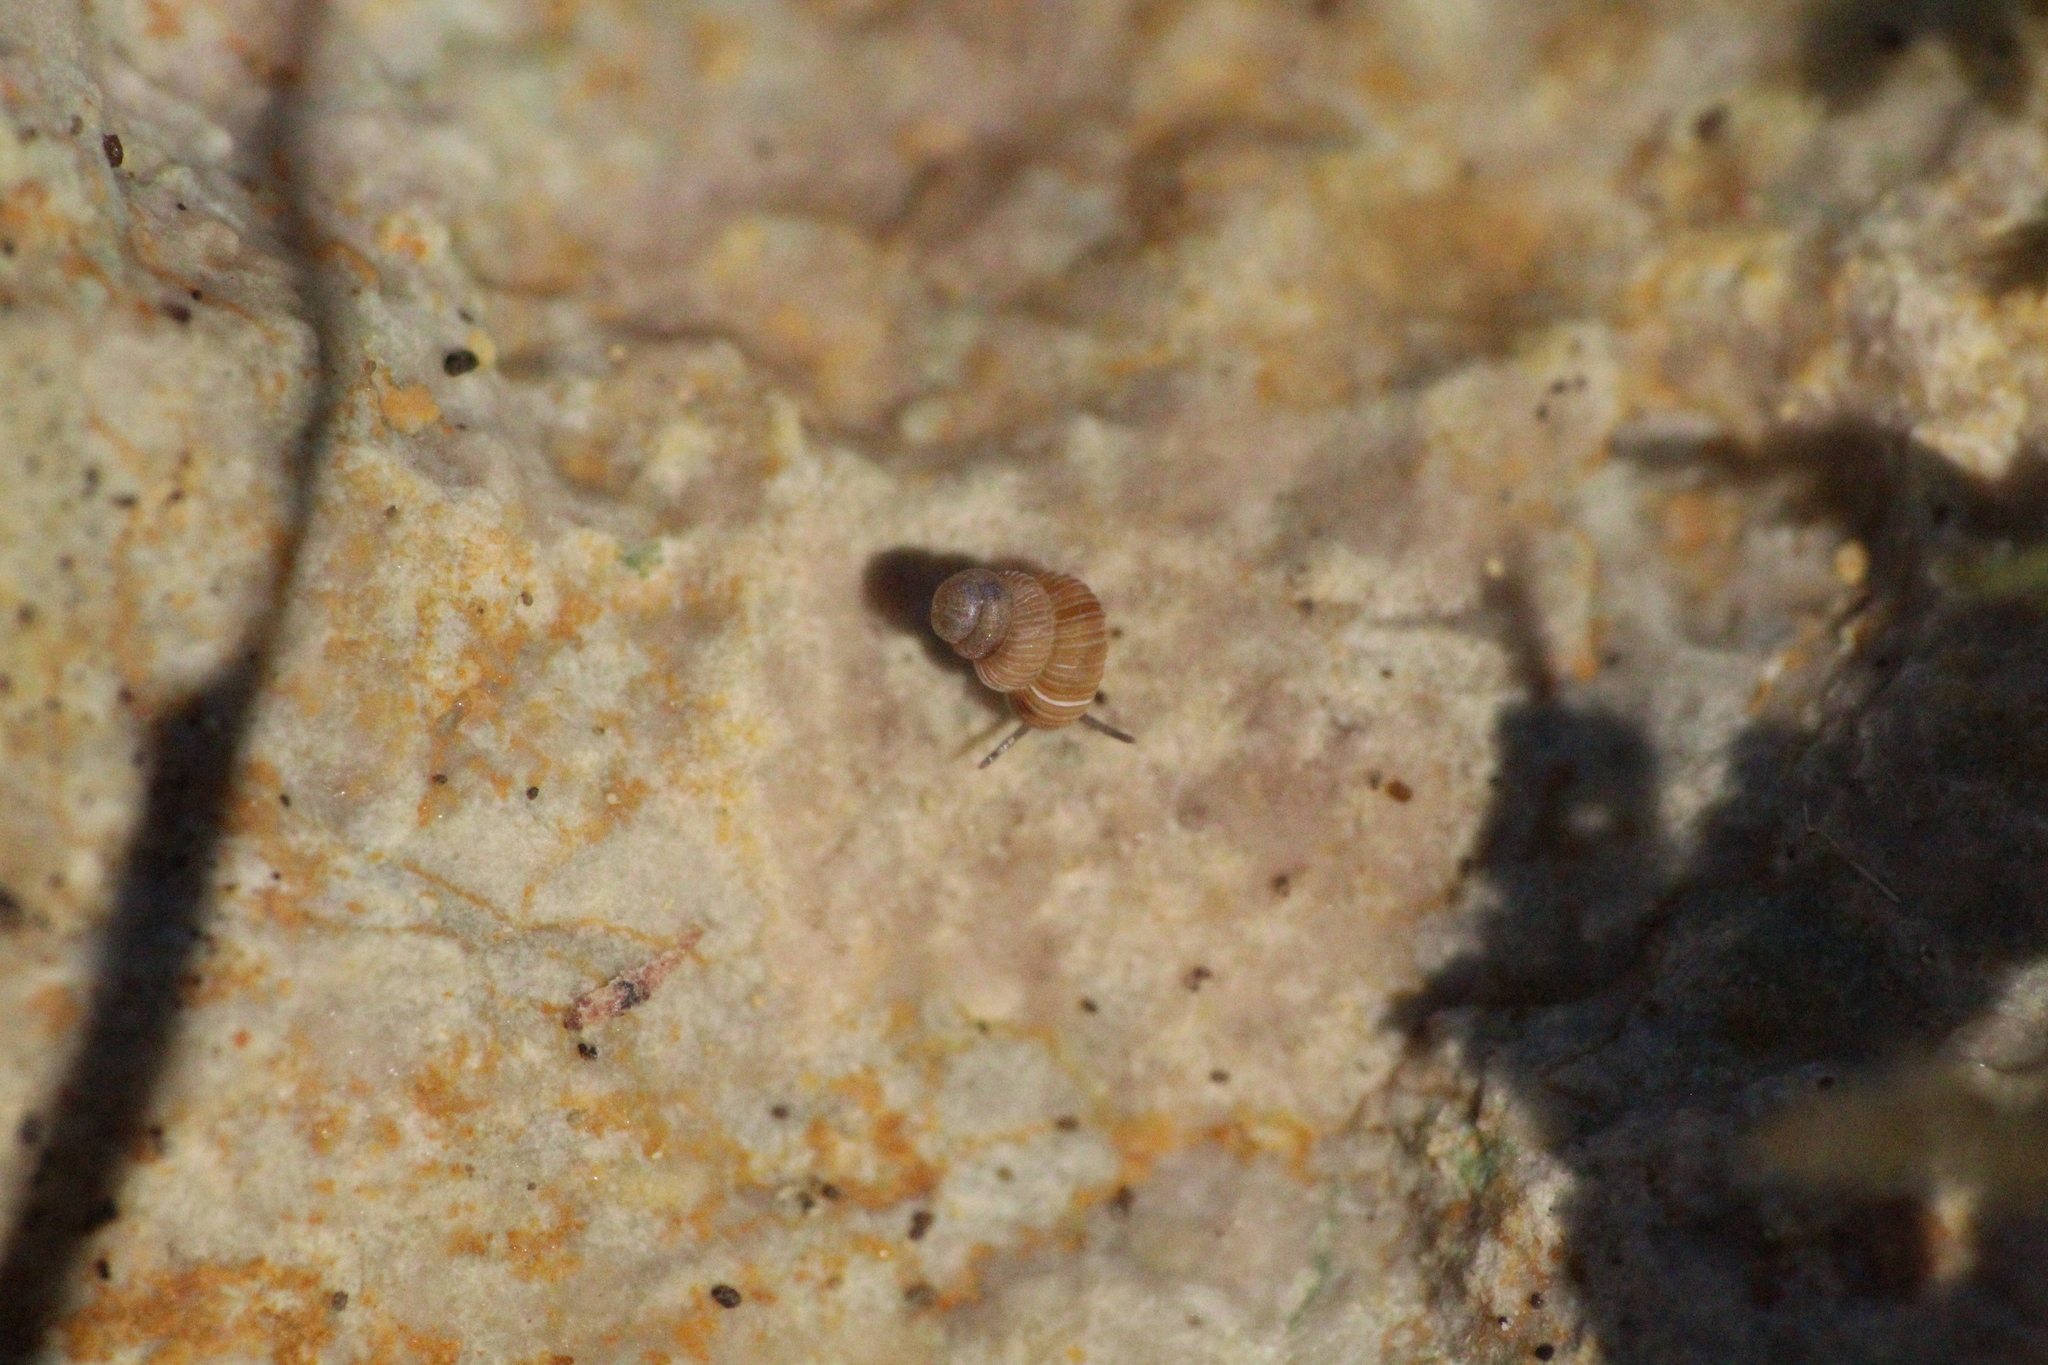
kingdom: Animalia
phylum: Mollusca
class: Gastropoda
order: Architaenioglossa
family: Cochlostomatidae
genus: Cochlostoma
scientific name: Cochlostoma septemspirale
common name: Seven-whorl snail
